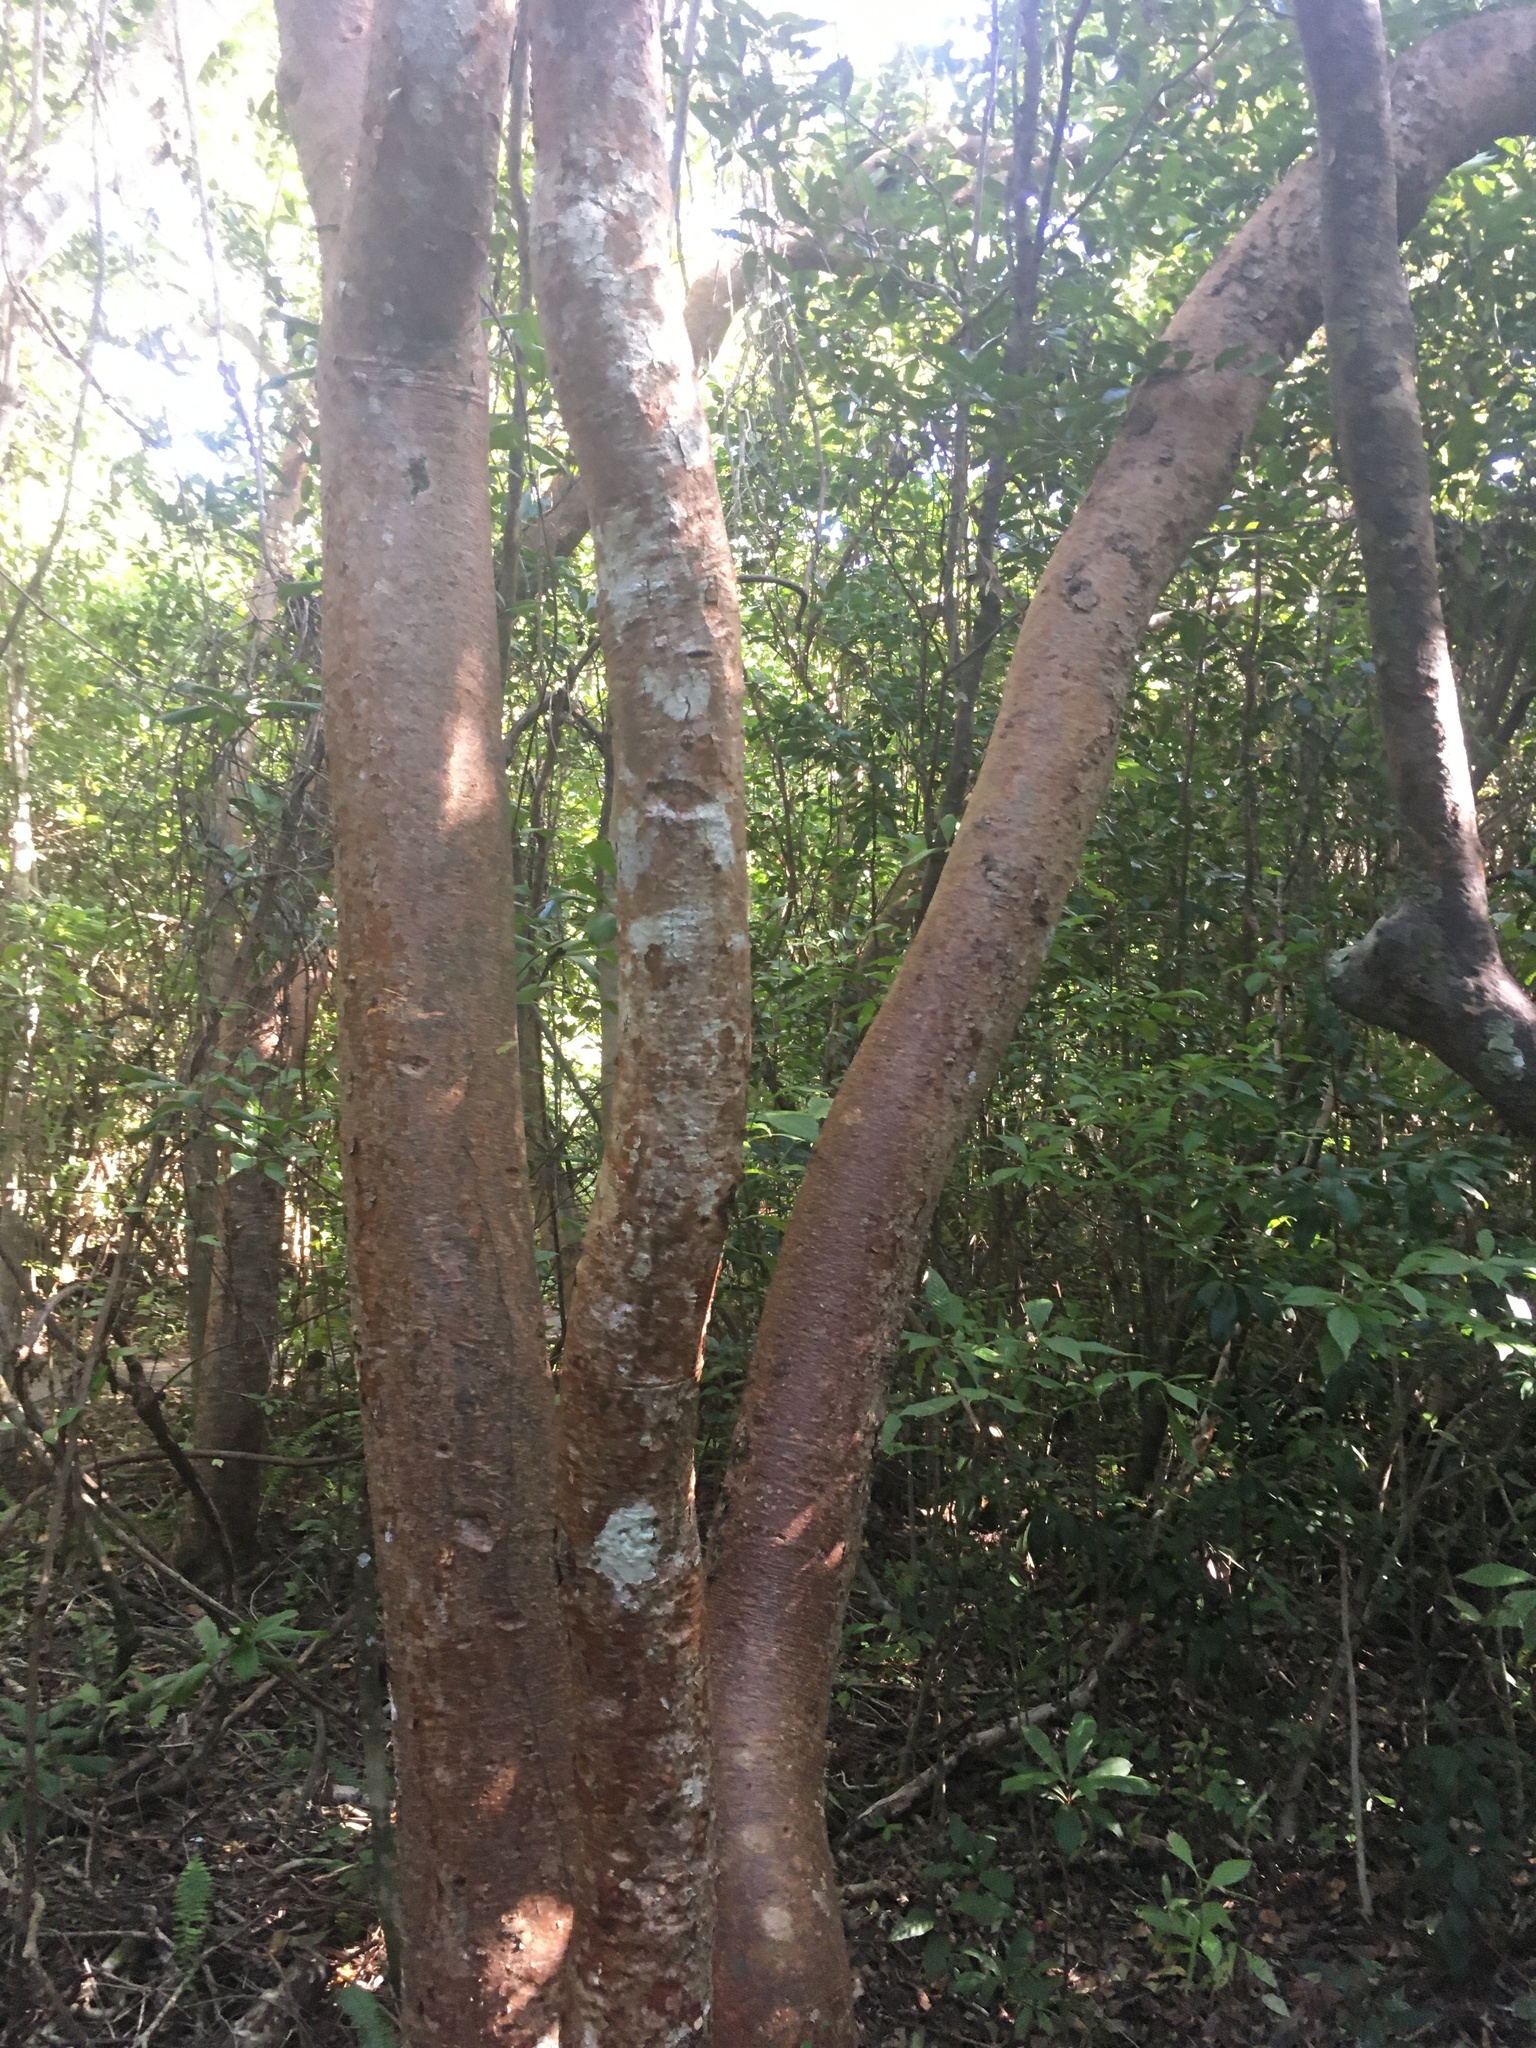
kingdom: Plantae
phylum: Tracheophyta
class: Magnoliopsida
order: Sapindales
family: Burseraceae
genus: Bursera
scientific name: Bursera simaruba
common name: Turpentine tree
